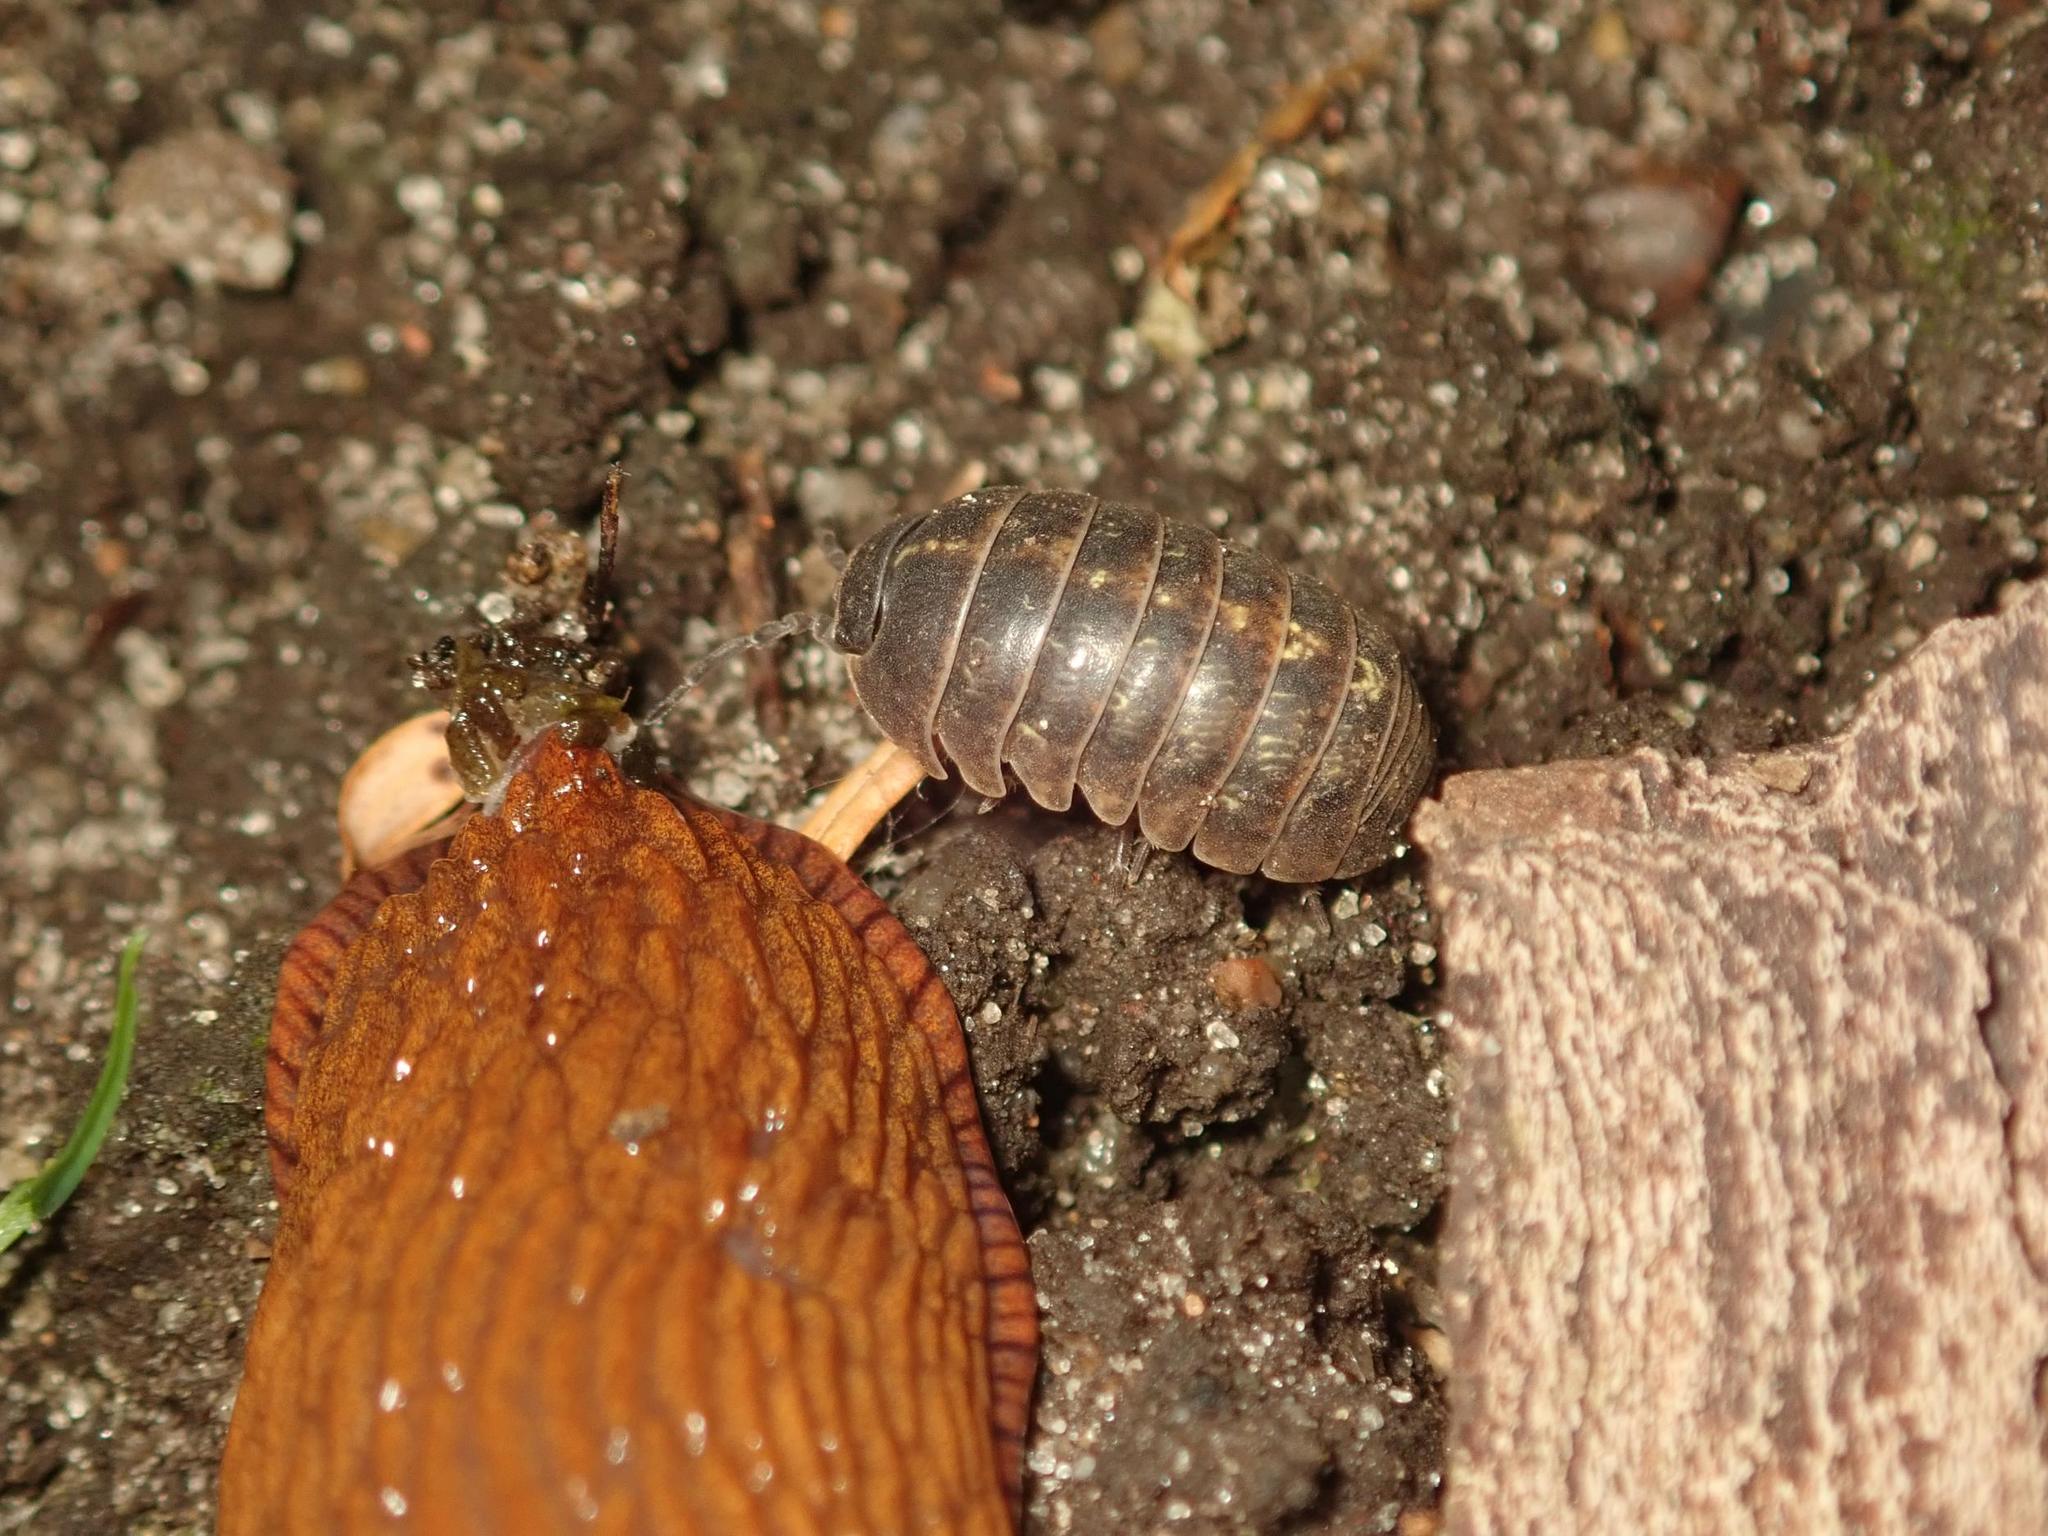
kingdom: Animalia
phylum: Arthropoda
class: Malacostraca
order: Isopoda
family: Armadillidiidae
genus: Armadillidium
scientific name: Armadillidium vulgare
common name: Common pill woodlouse
